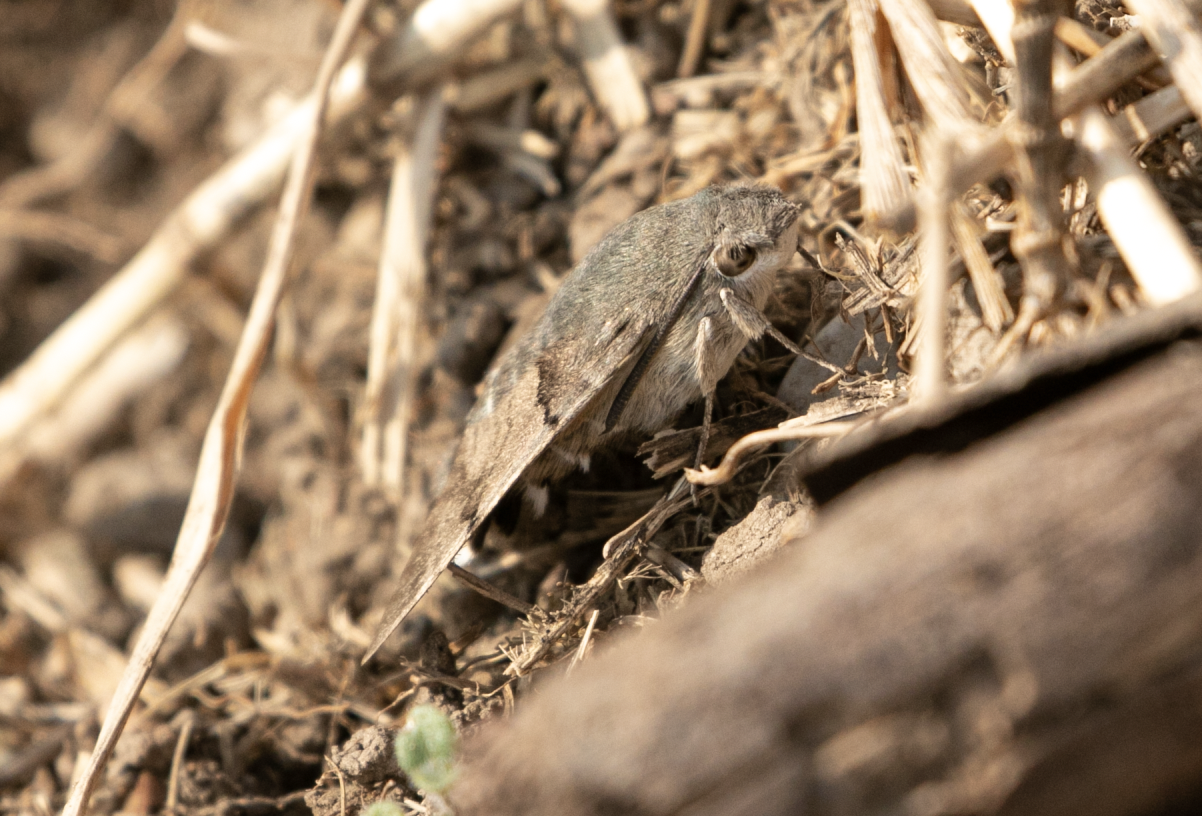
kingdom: Animalia
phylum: Arthropoda
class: Insecta
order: Lepidoptera
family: Sphingidae
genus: Macroglossum
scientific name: Macroglossum stellatarum
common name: Humming-bird hawk-moth
